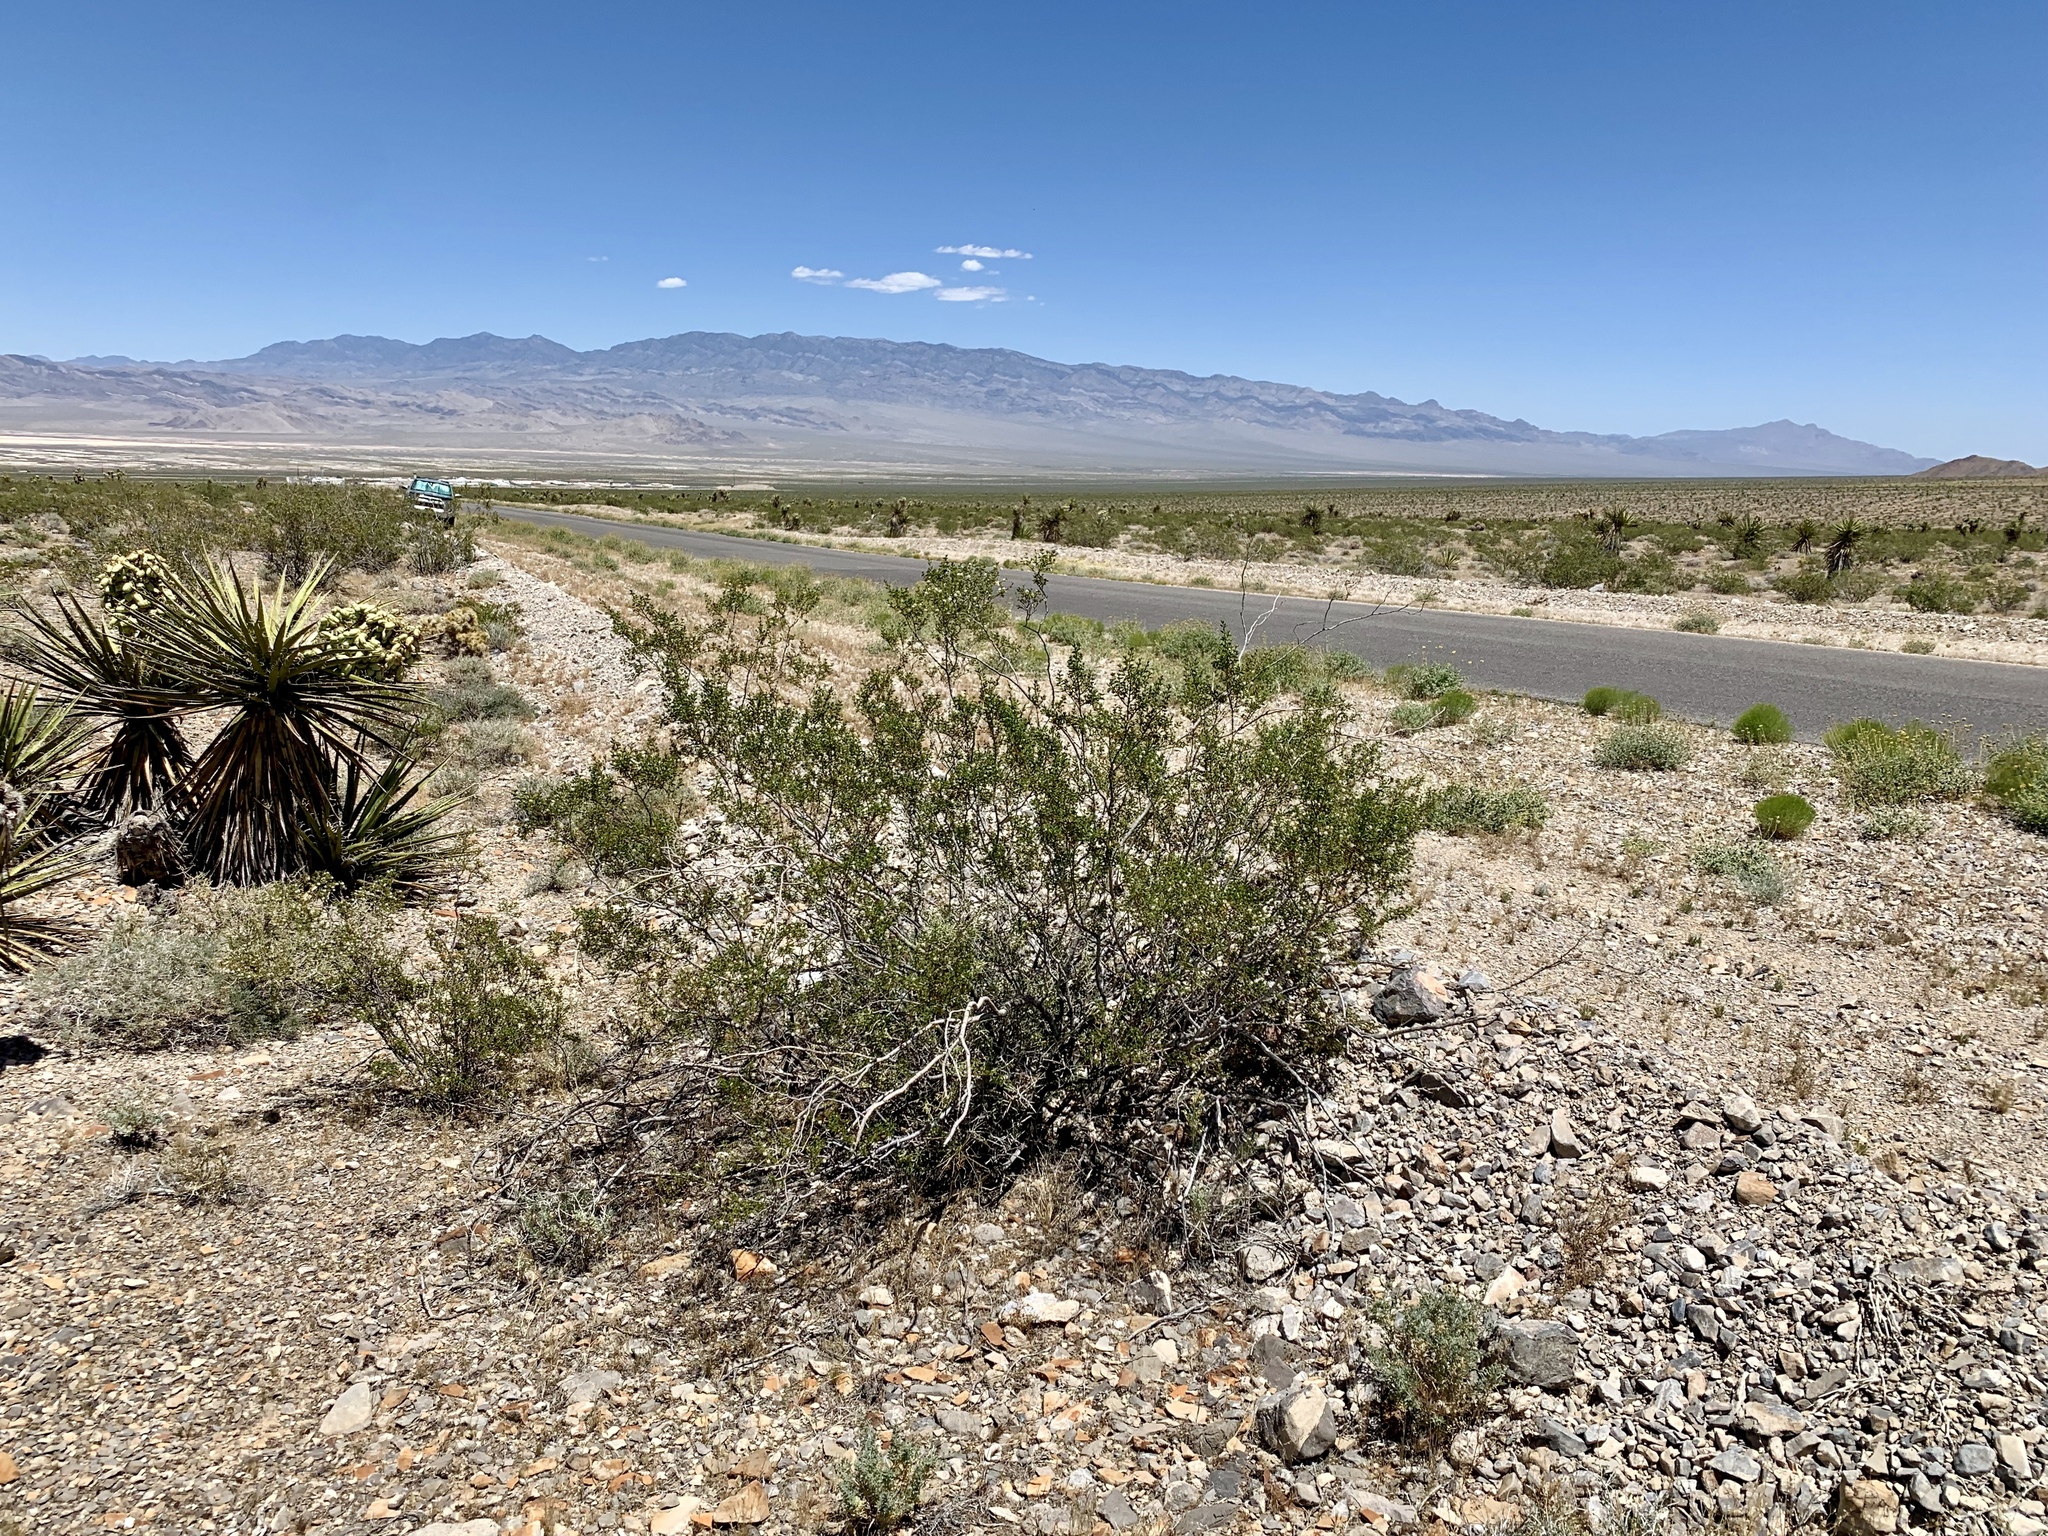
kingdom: Plantae
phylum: Tracheophyta
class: Magnoliopsida
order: Zygophyllales
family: Zygophyllaceae
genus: Larrea
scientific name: Larrea tridentata
